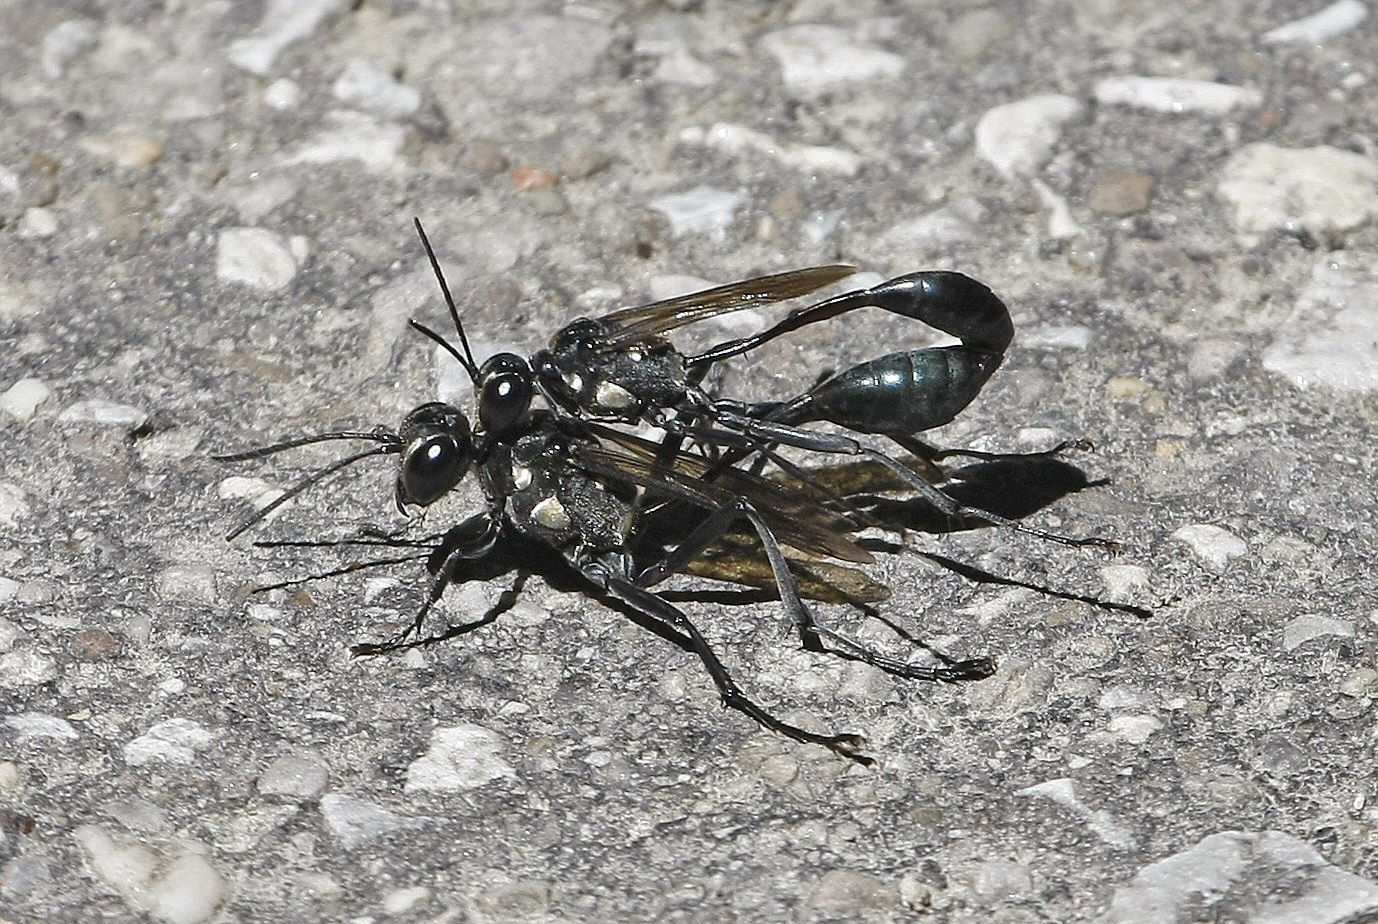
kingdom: Animalia
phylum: Arthropoda
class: Insecta
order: Hymenoptera
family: Sphecidae
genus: Eremnophila
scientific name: Eremnophila aureonotata
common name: Gold-marked thread-waisted wasp
